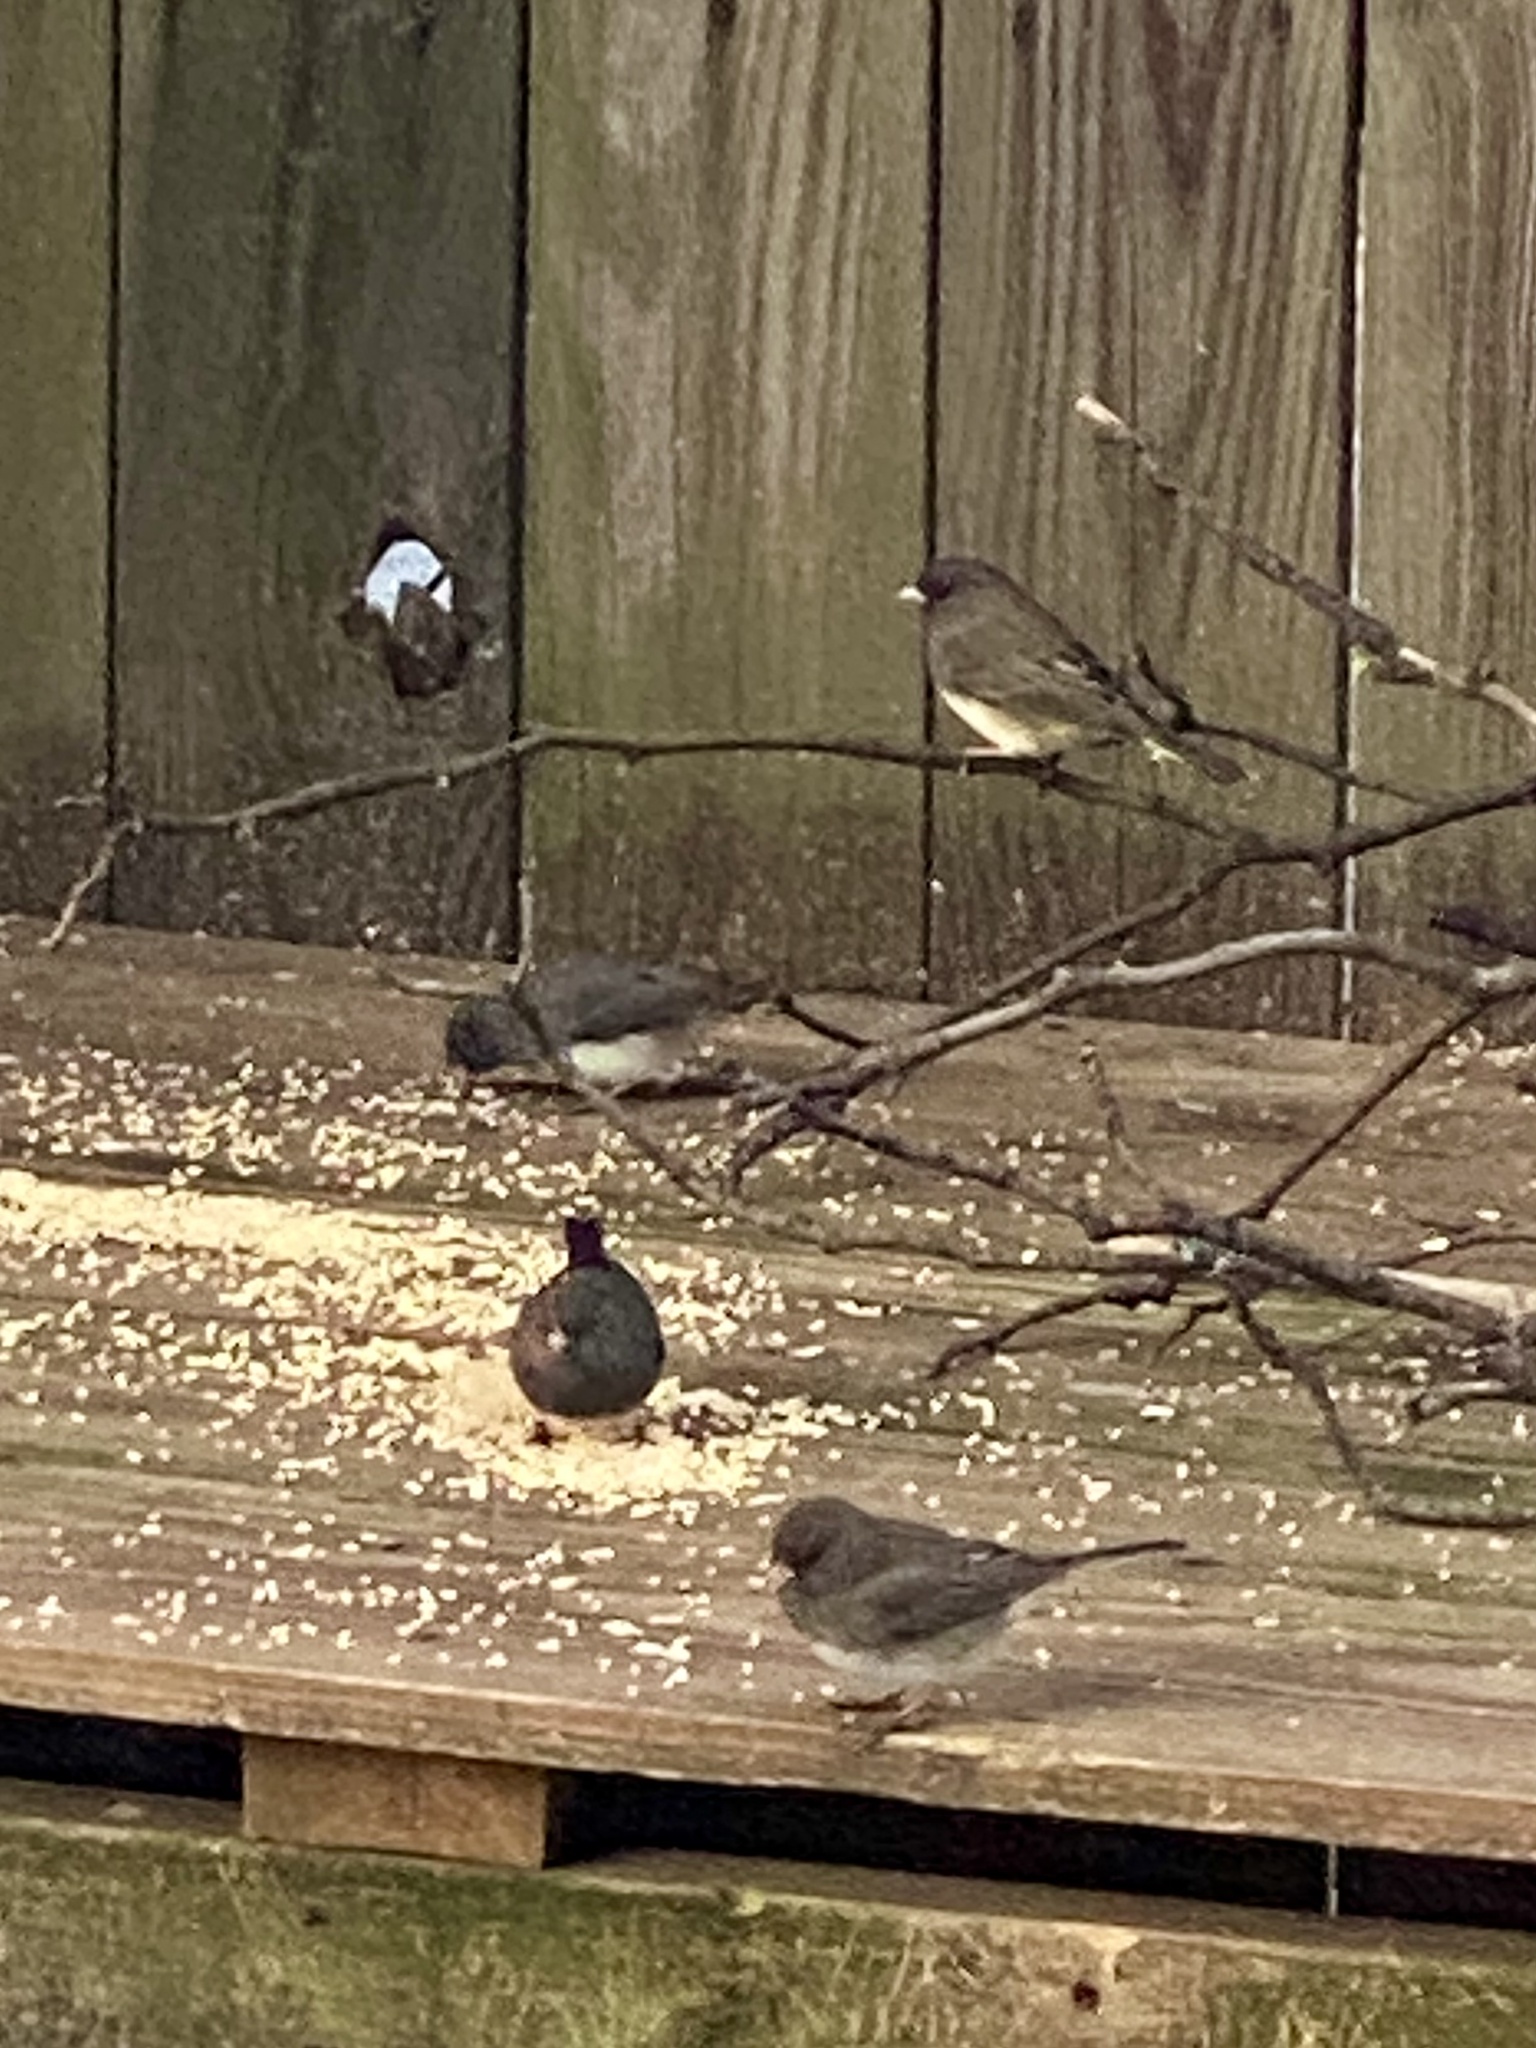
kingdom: Animalia
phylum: Chordata
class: Aves
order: Passeriformes
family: Passerellidae
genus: Junco
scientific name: Junco hyemalis
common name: Dark-eyed junco
